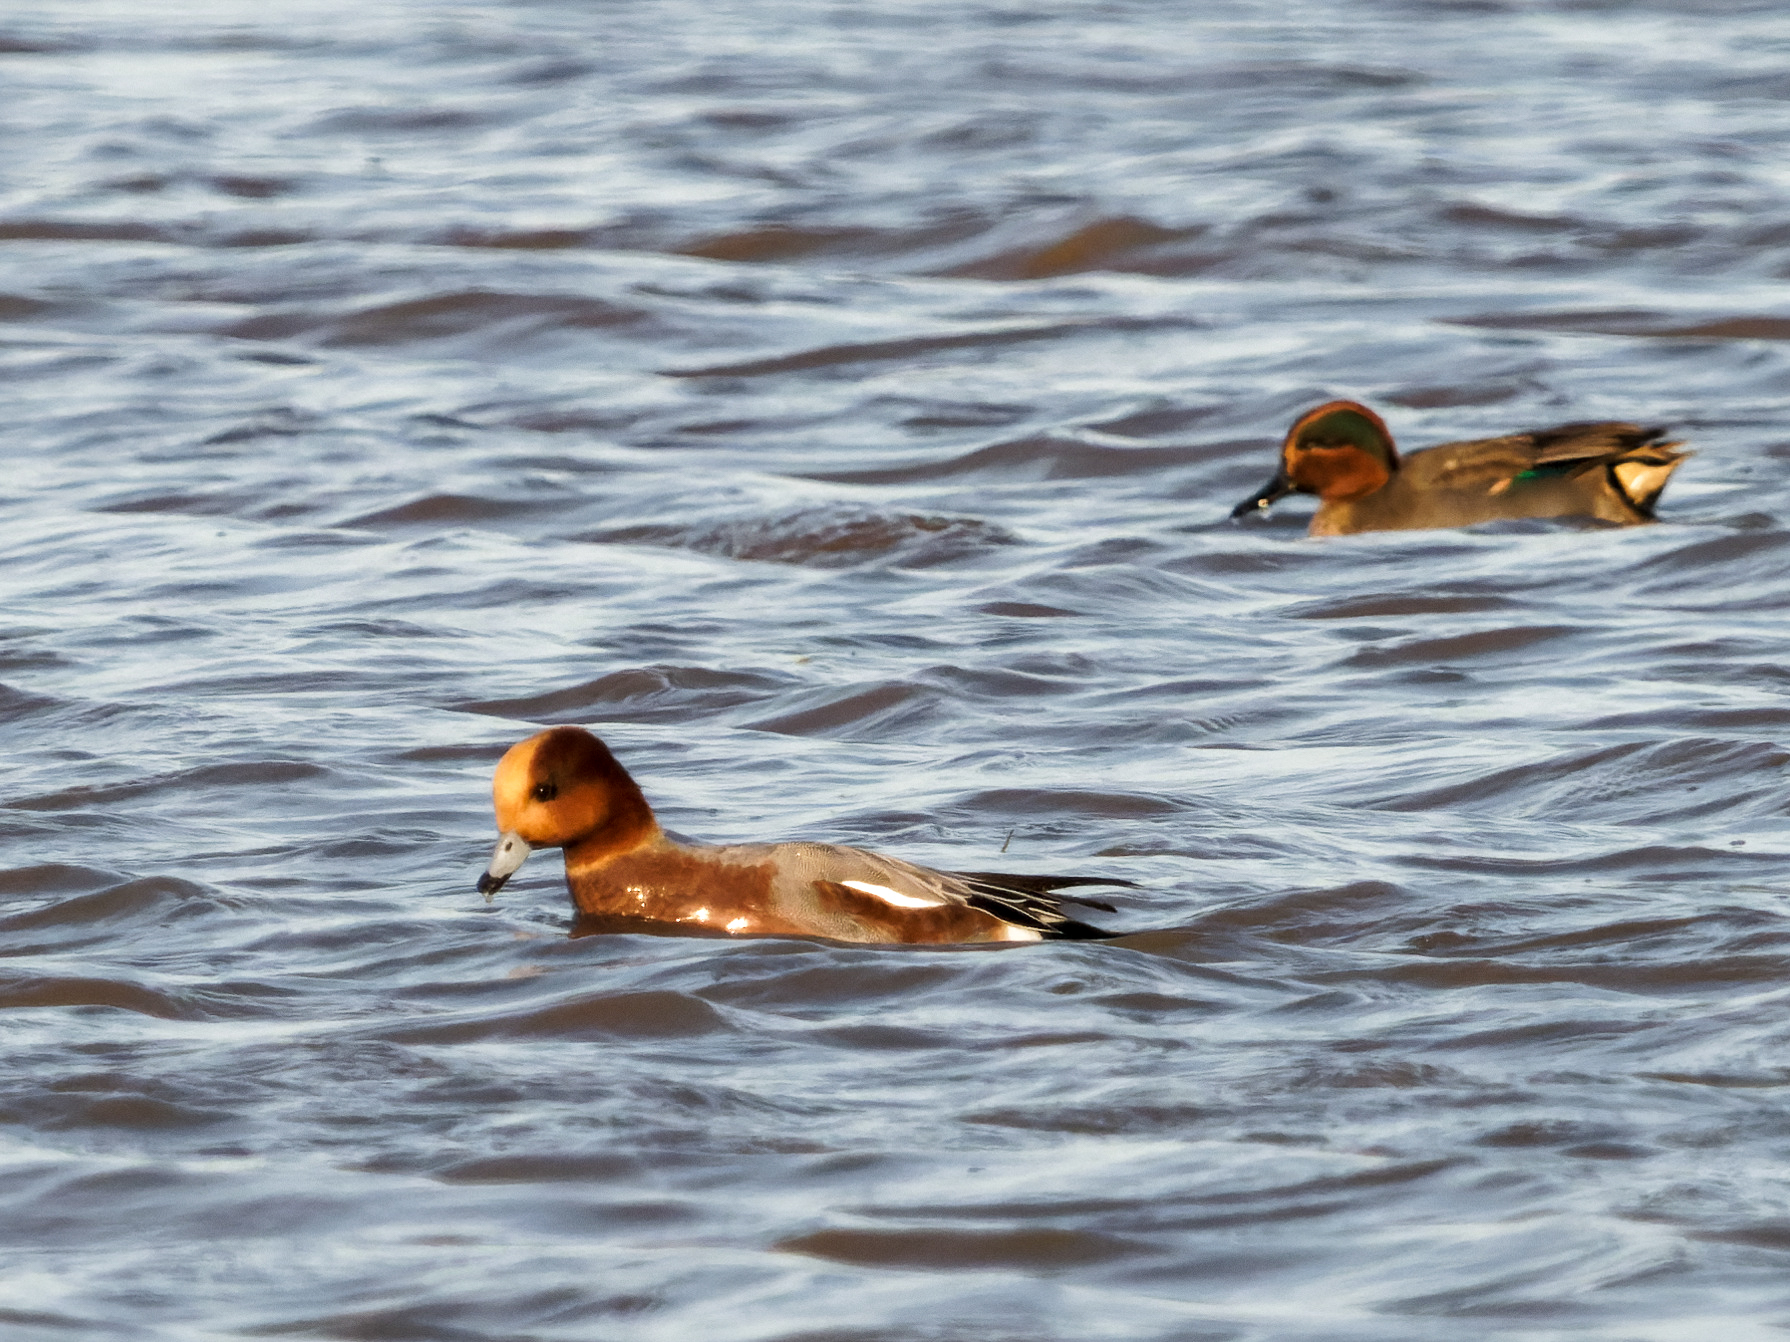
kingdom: Animalia
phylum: Chordata
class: Aves
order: Anseriformes
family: Anatidae
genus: Mareca
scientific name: Mareca penelope
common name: Eurasian wigeon
